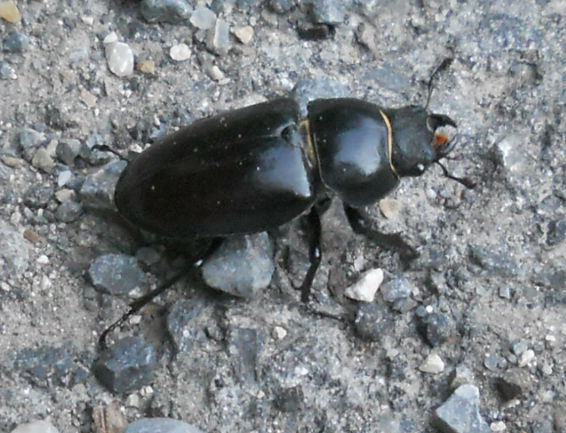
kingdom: Animalia
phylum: Arthropoda
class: Insecta
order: Coleoptera
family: Lucanidae
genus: Lucanus
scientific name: Lucanus cervus
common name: Stag beetle
